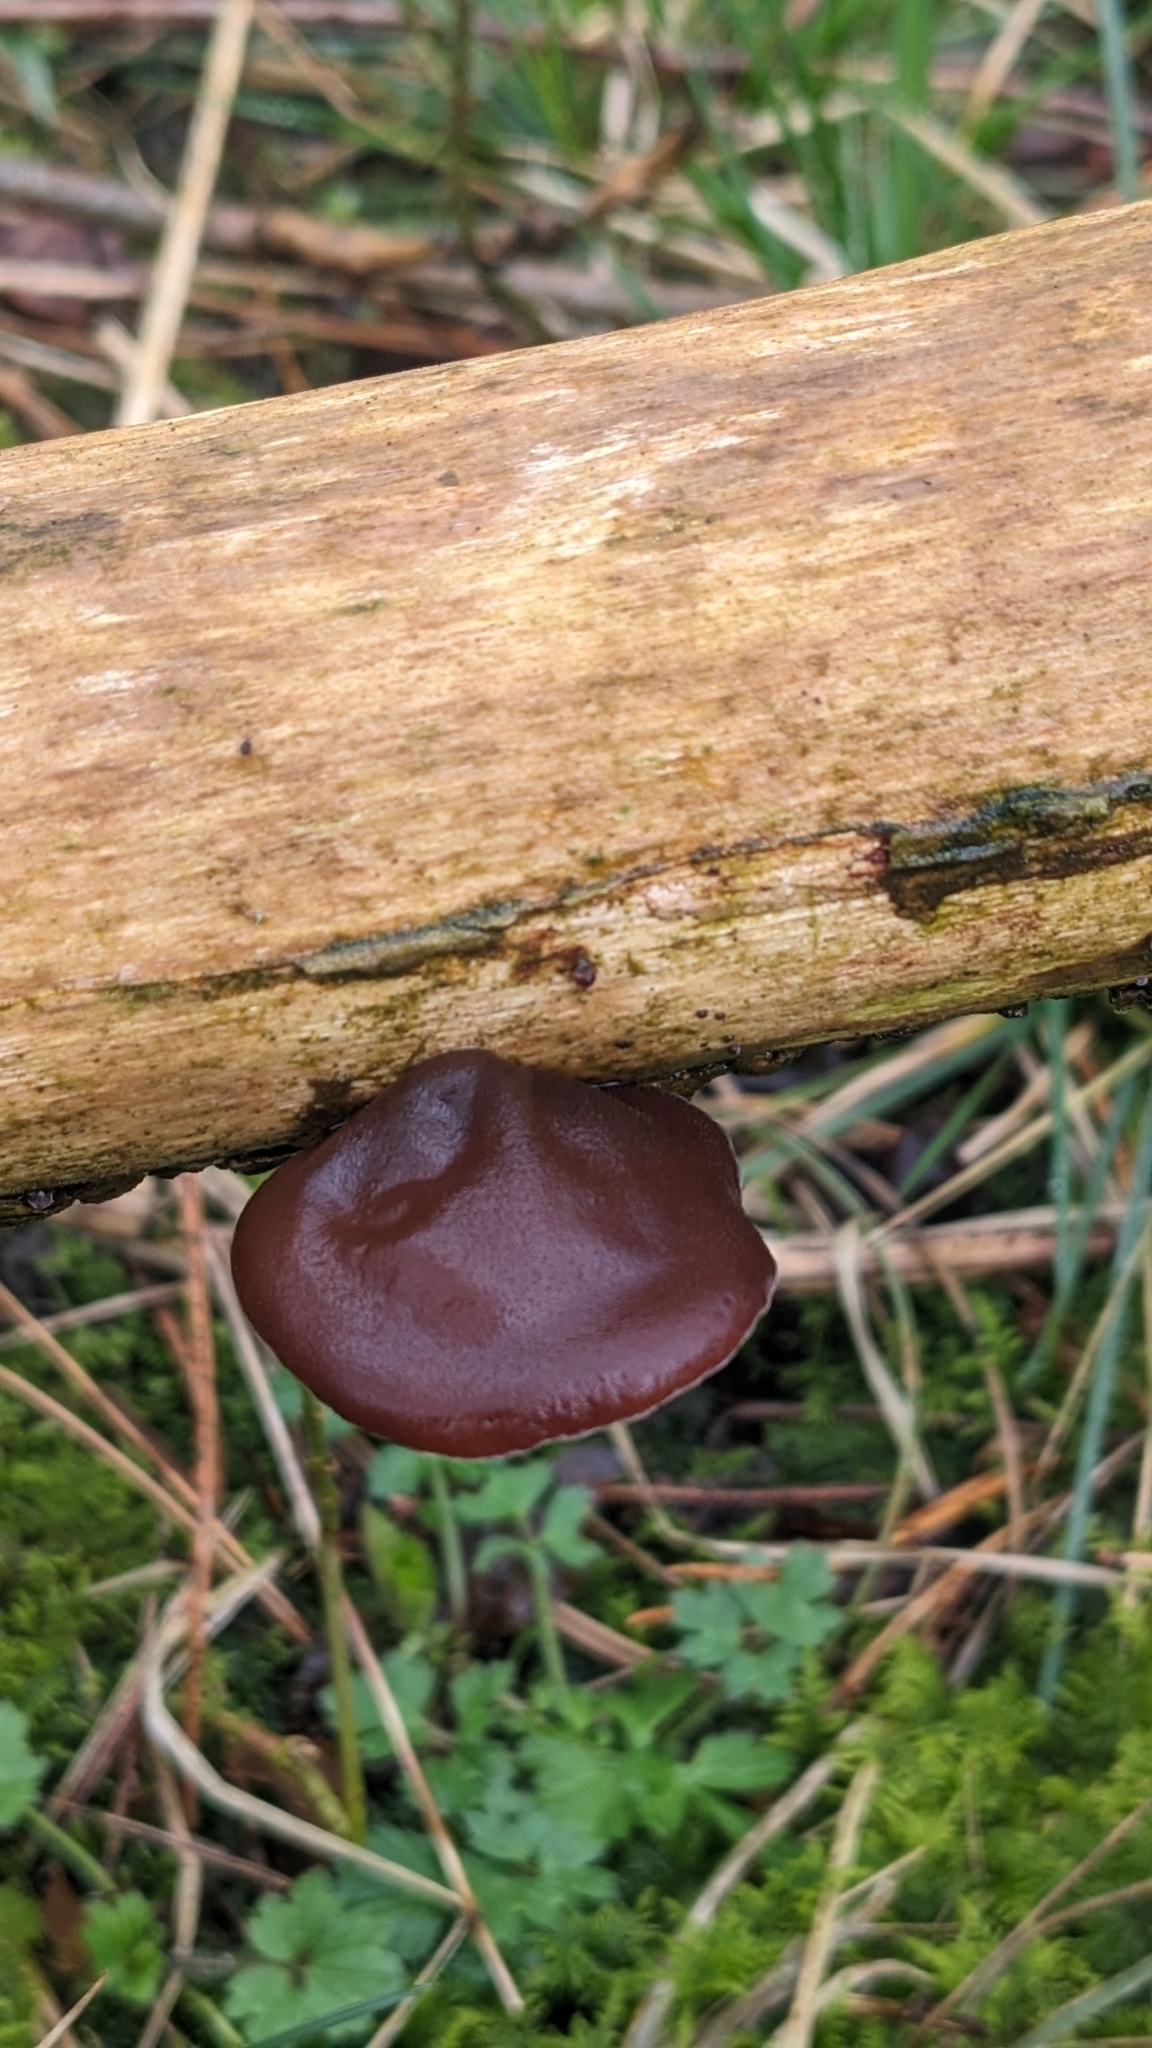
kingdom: Fungi
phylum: Basidiomycota
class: Agaricomycetes
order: Auriculariales
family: Auriculariaceae
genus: Auricularia
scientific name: Auricularia auricula-judae
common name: Jelly ear
